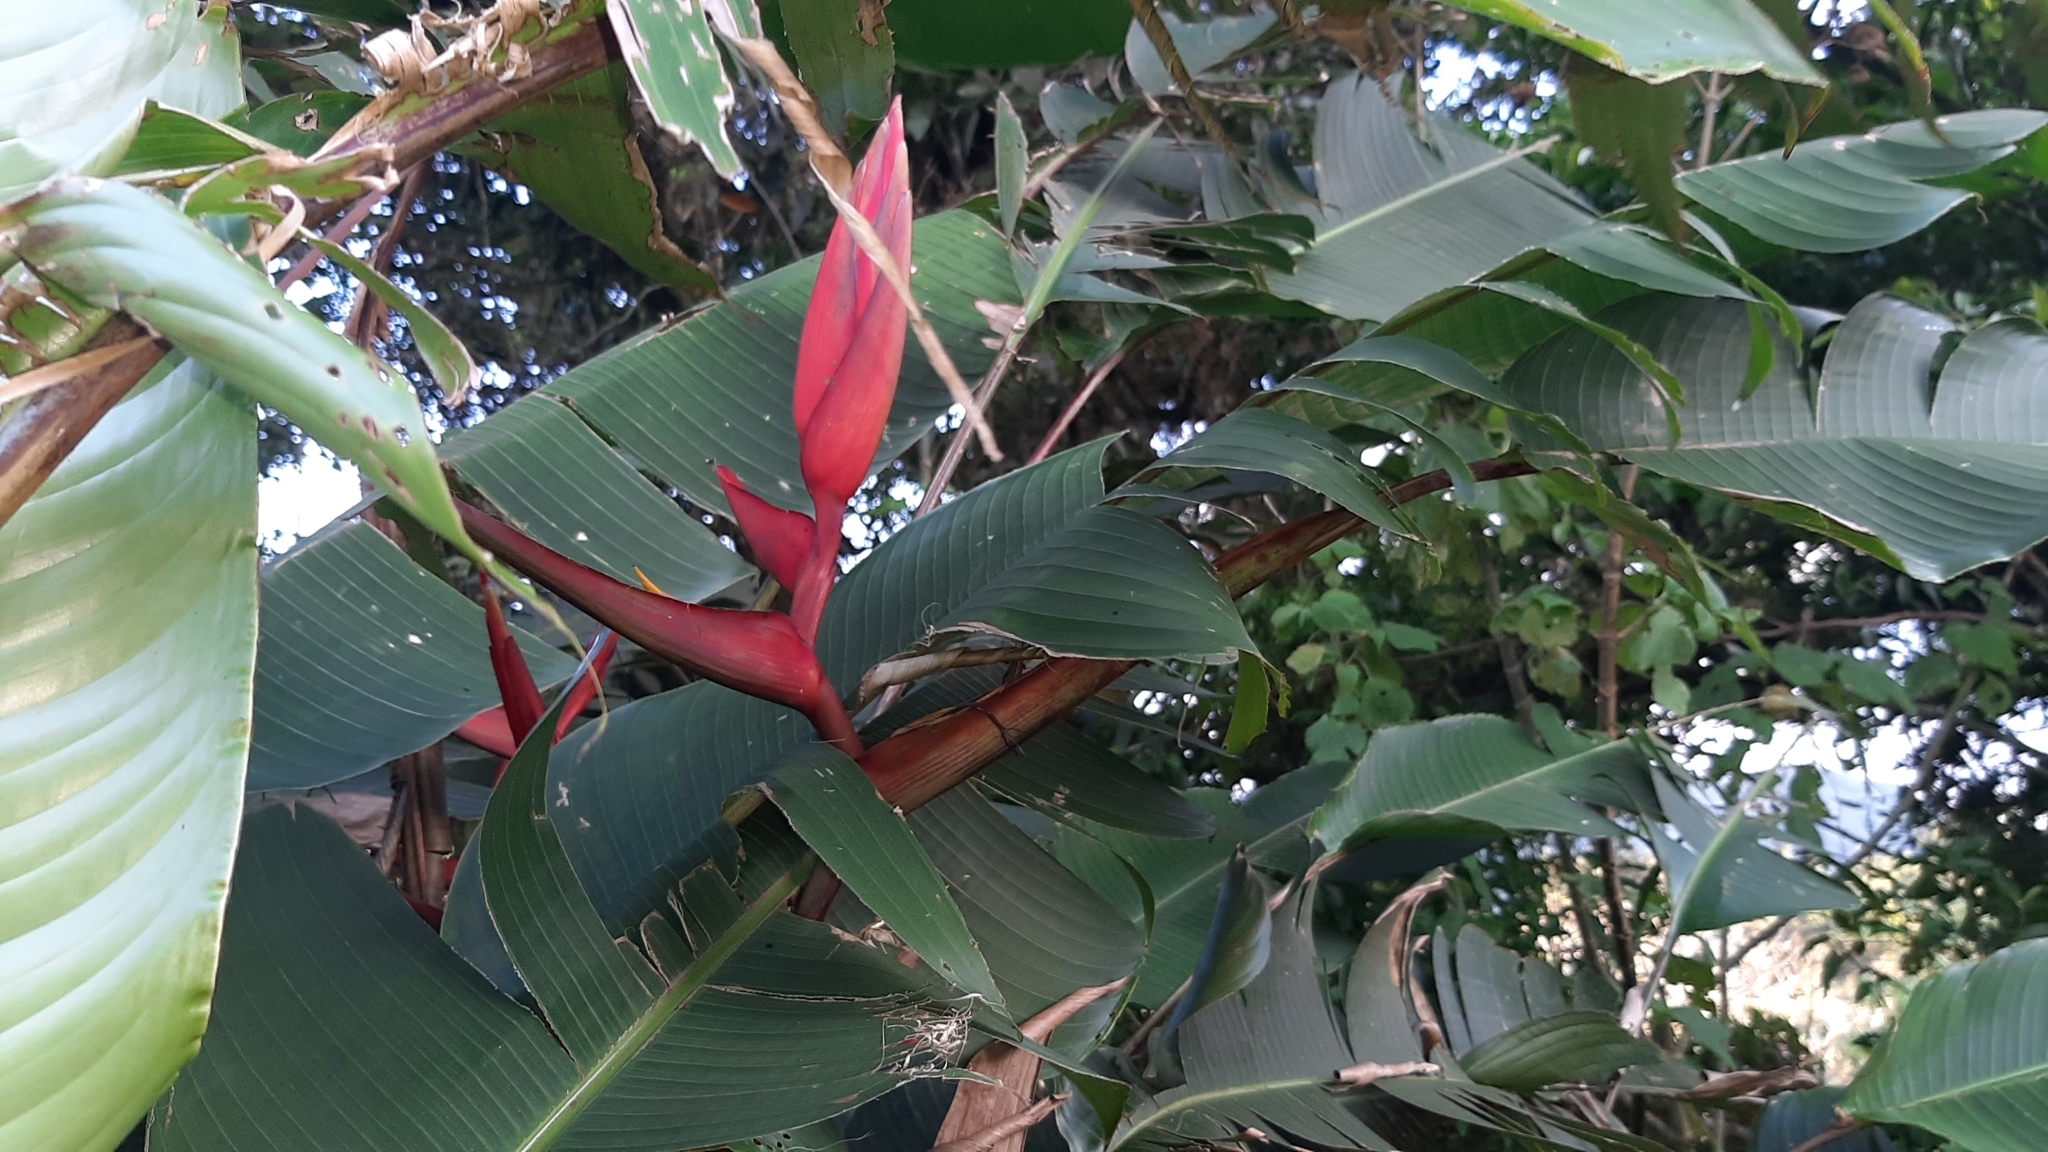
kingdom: Plantae
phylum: Tracheophyta
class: Liliopsida
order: Zingiberales
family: Heliconiaceae
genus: Heliconia
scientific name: Heliconia tortuosa
